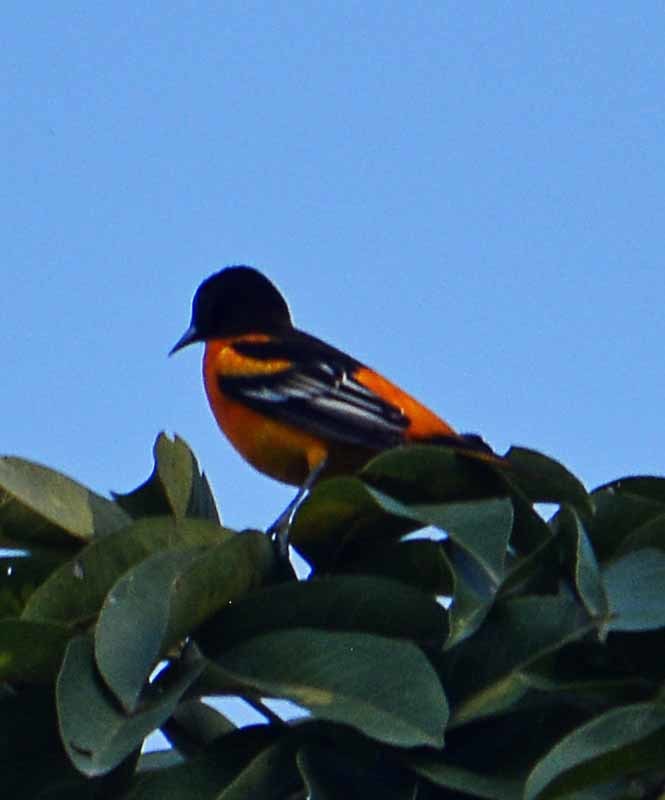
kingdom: Animalia
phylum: Chordata
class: Aves
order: Passeriformes
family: Icteridae
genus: Icterus
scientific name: Icterus galbula
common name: Baltimore oriole
